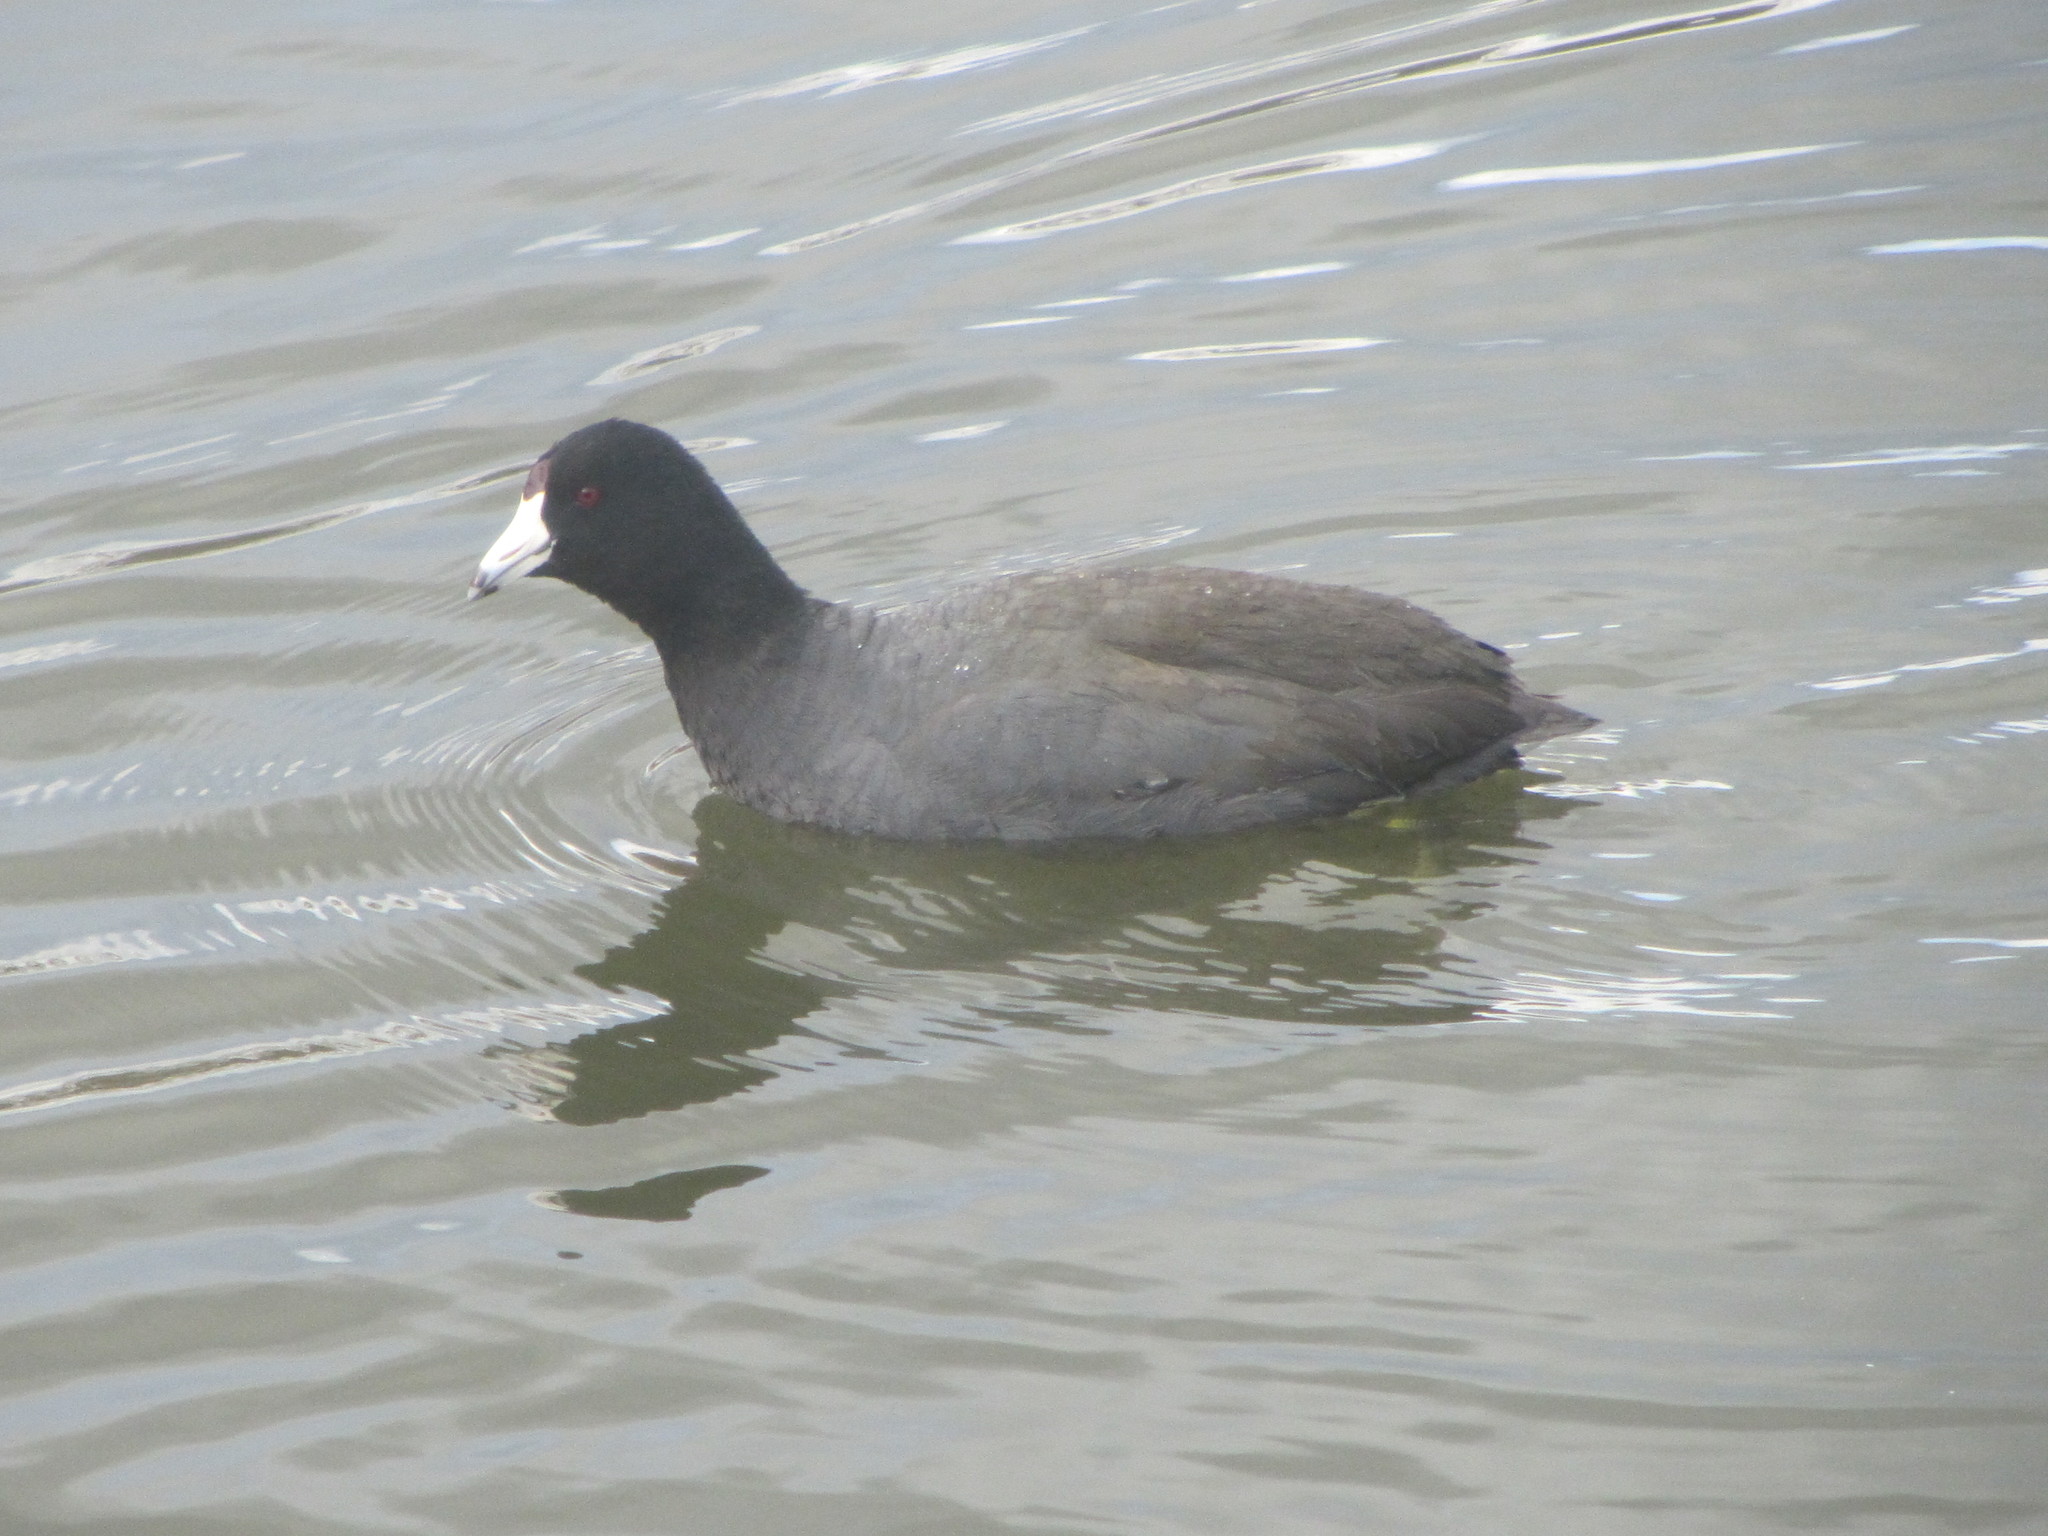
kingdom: Animalia
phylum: Chordata
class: Aves
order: Gruiformes
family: Rallidae
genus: Fulica
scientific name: Fulica americana
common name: American coot
